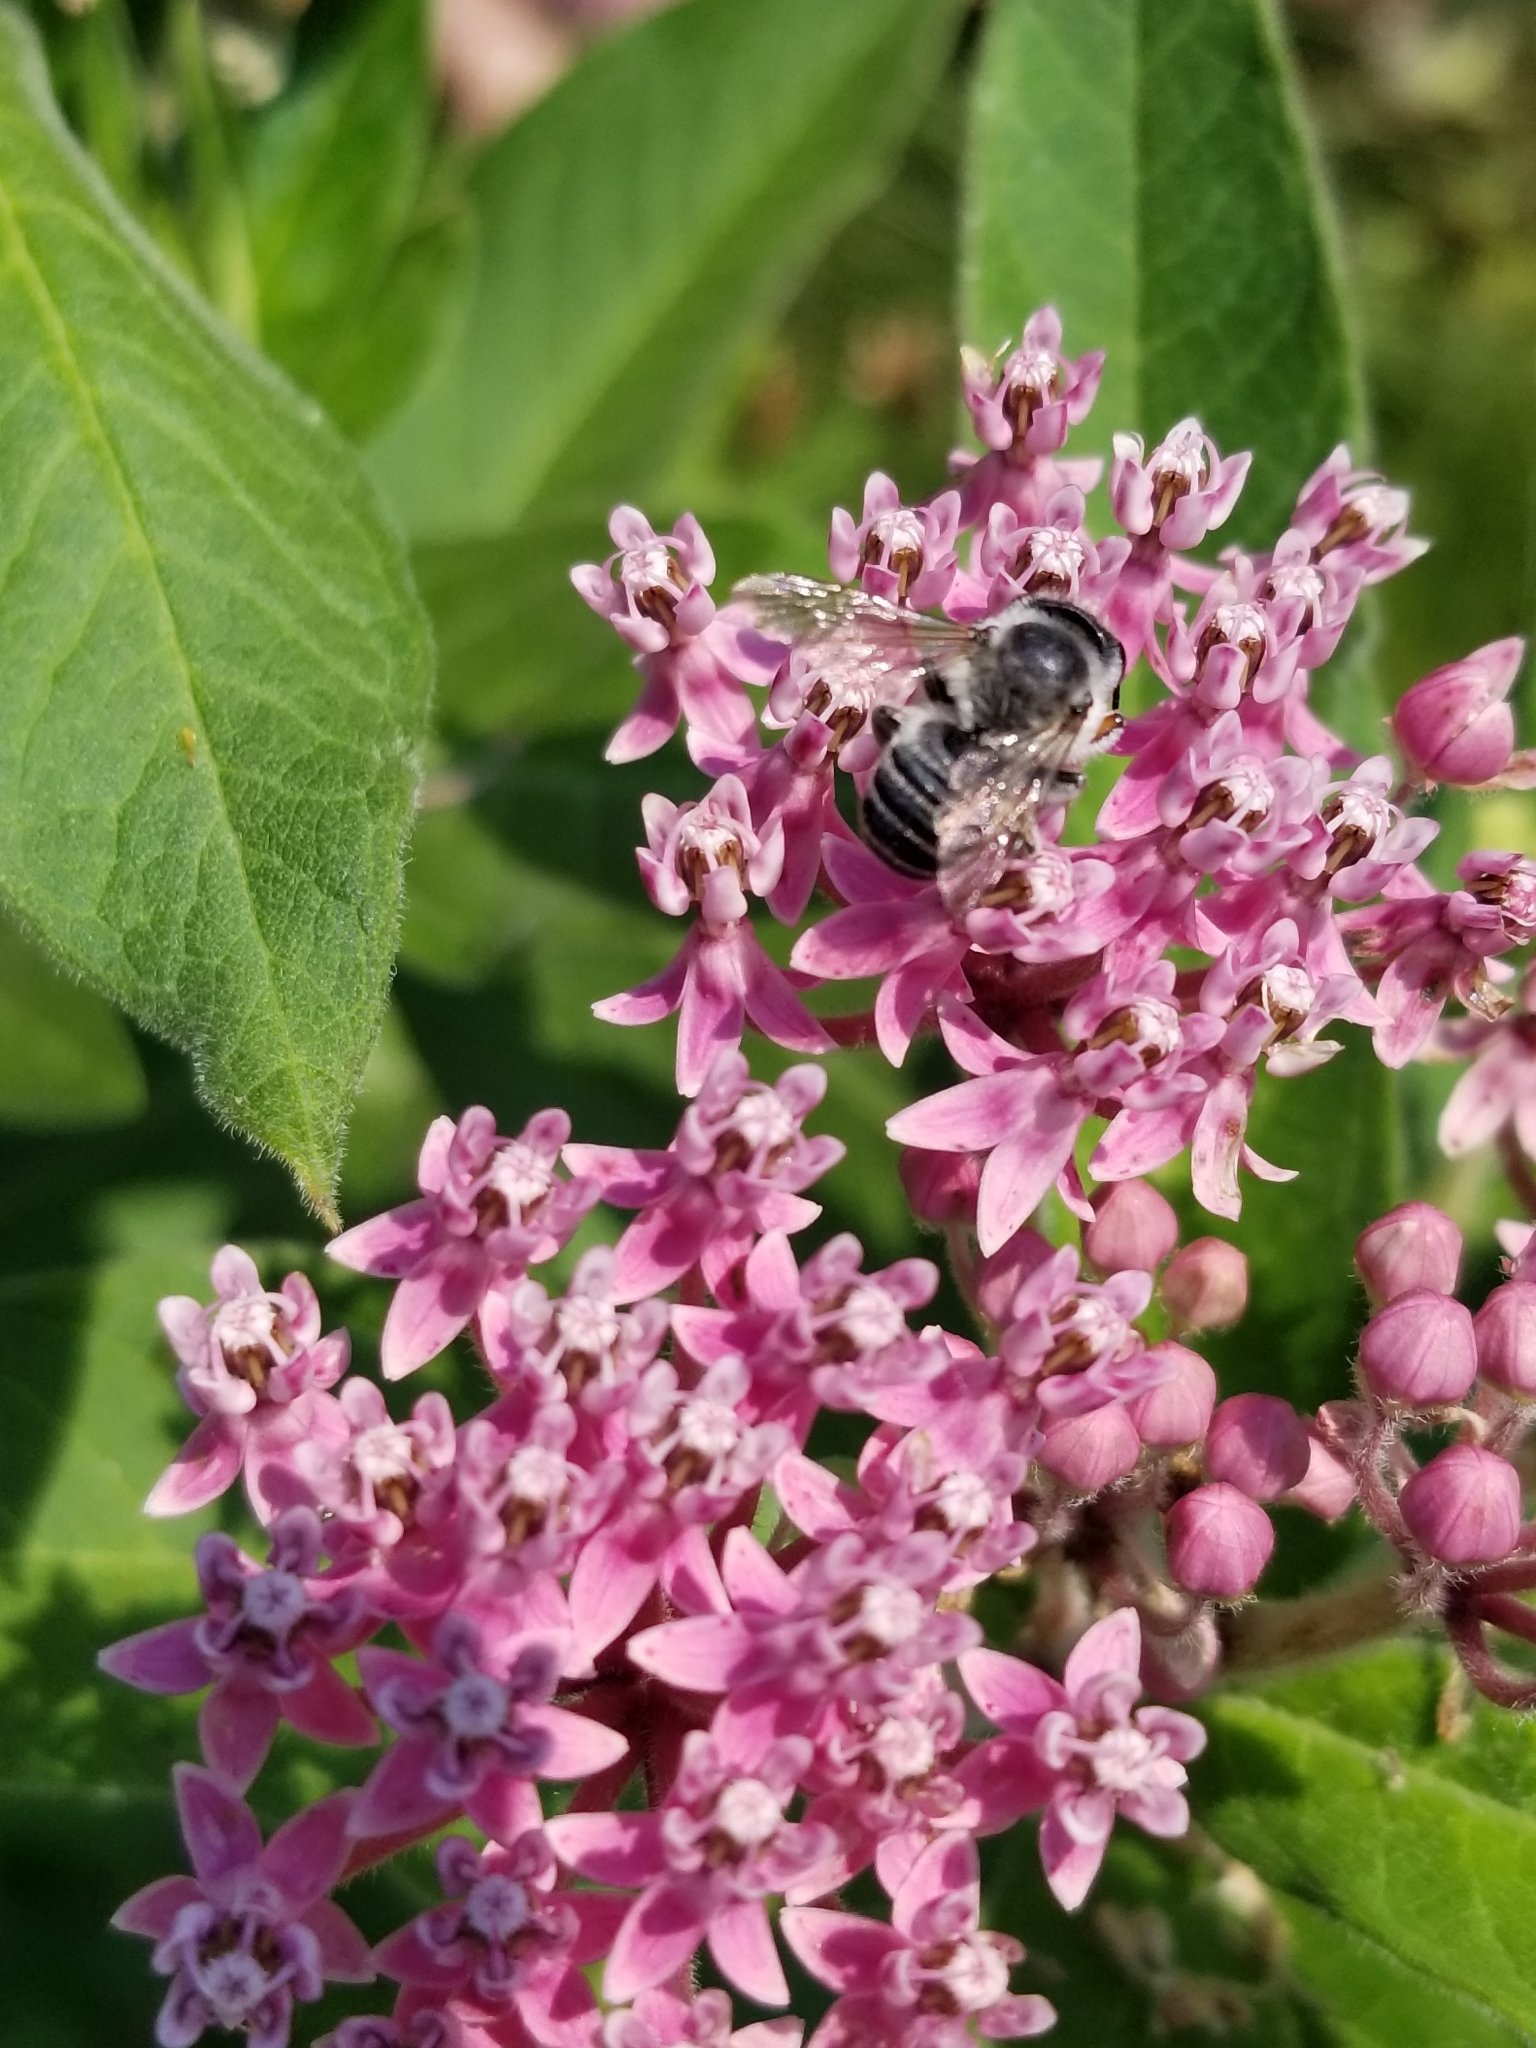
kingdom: Animalia
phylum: Arthropoda
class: Insecta
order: Hymenoptera
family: Megachilidae
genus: Megachile
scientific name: Megachile
